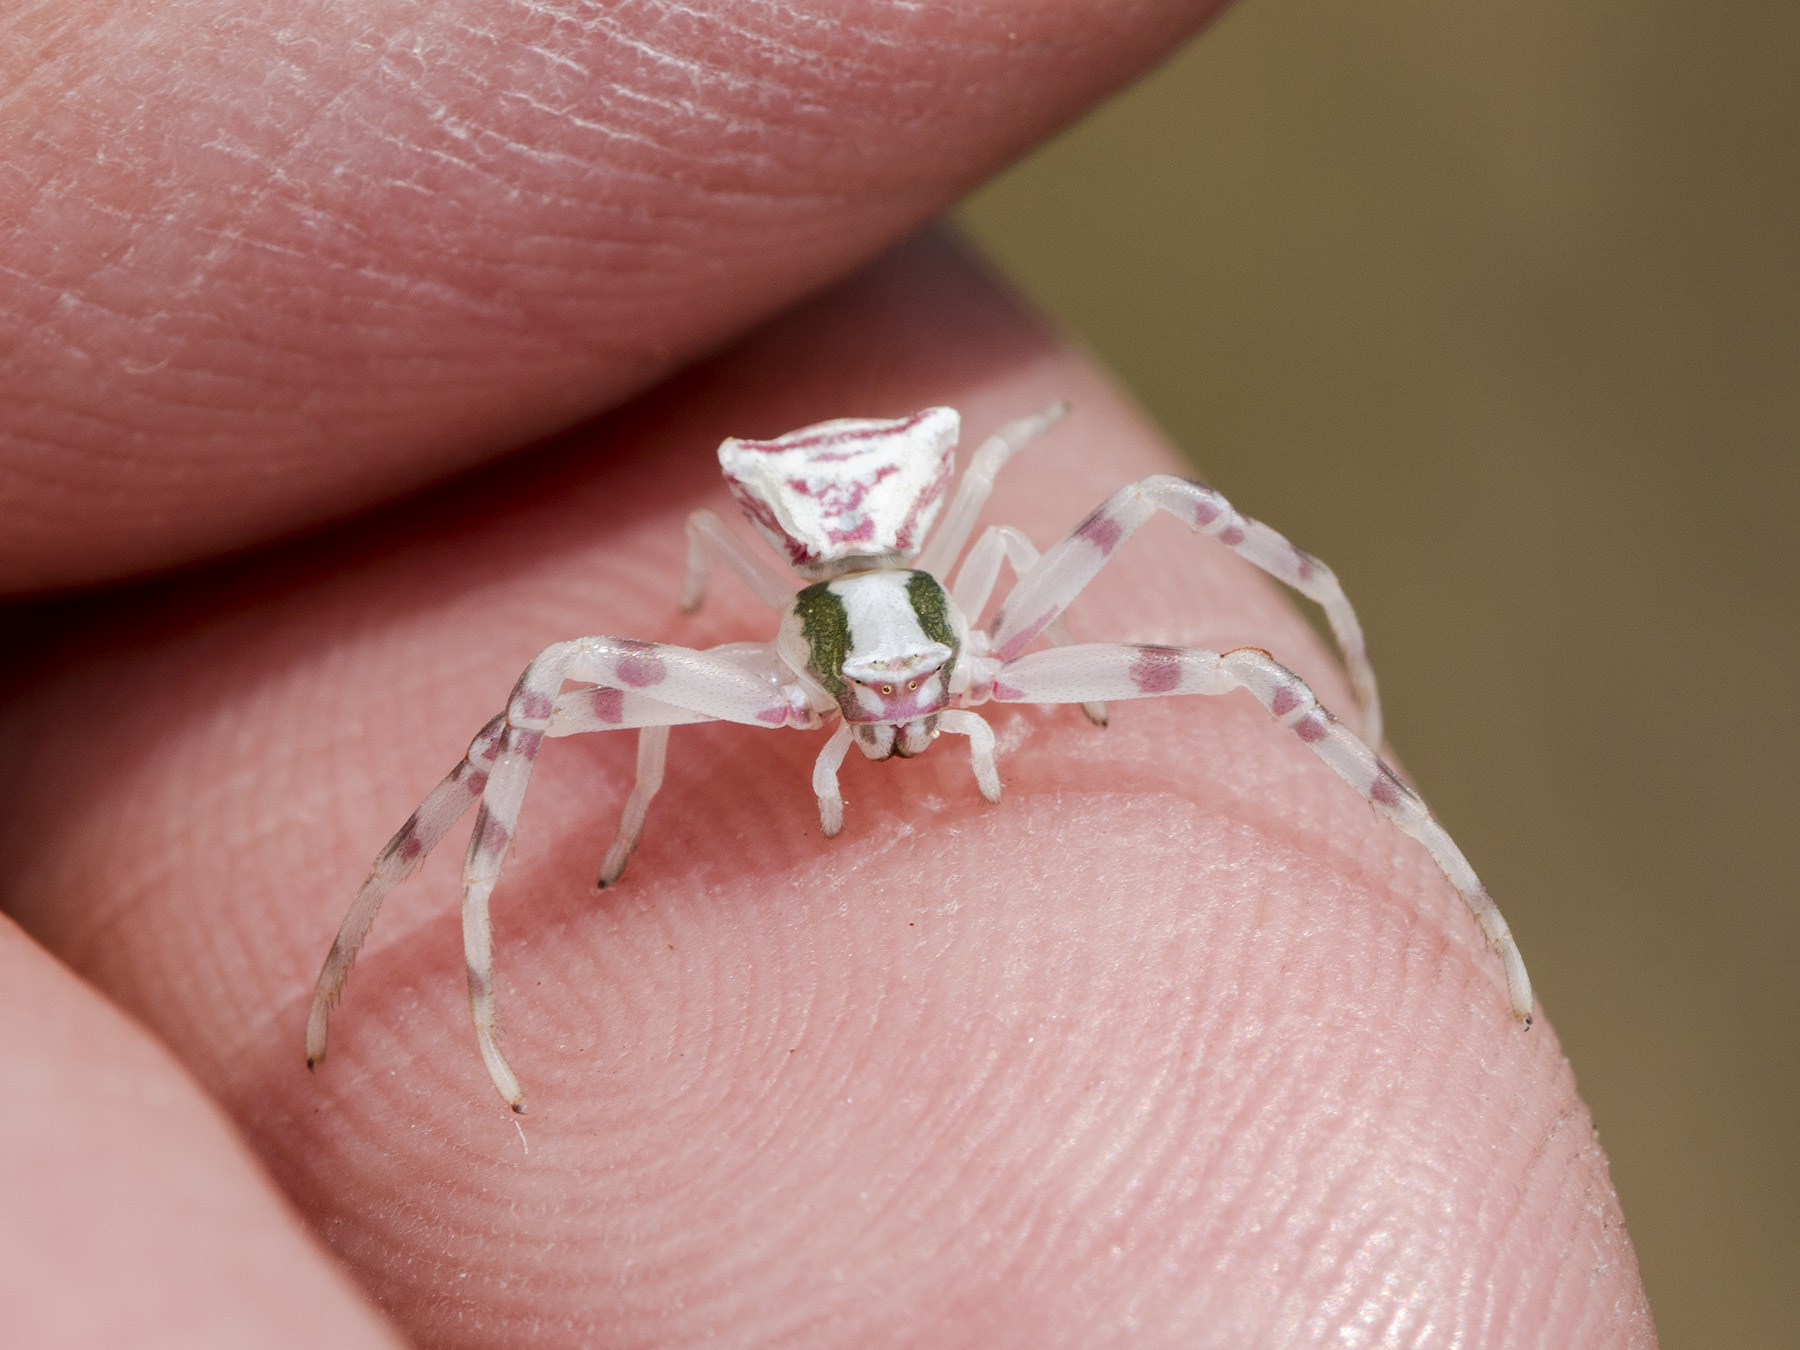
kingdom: Animalia
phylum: Arthropoda
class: Arachnida
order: Araneae
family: Thomisidae
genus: Thomisus
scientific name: Thomisus onustus
